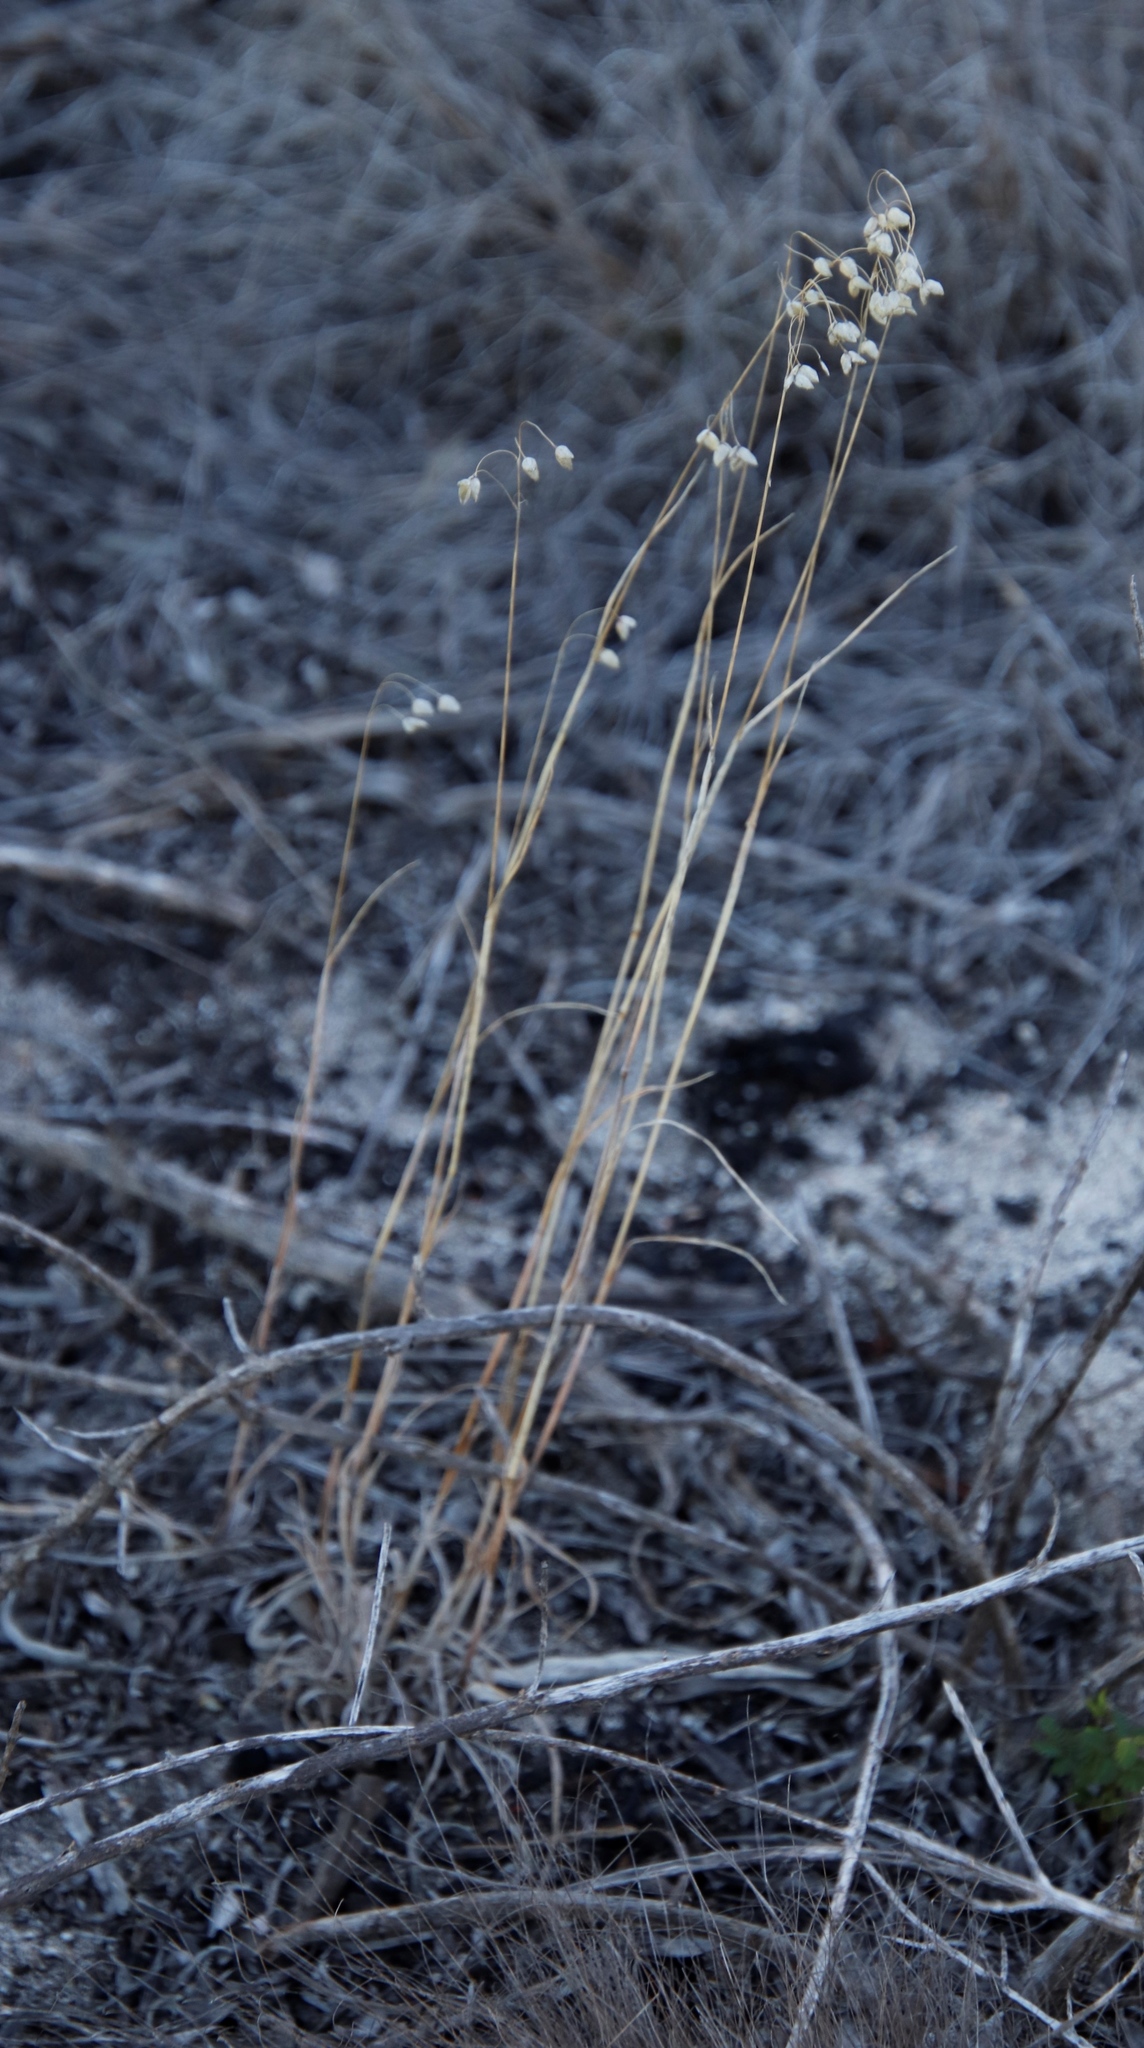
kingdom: Plantae
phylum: Tracheophyta
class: Liliopsida
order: Poales
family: Poaceae
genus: Briza
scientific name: Briza maxima
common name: Big quakinggrass
